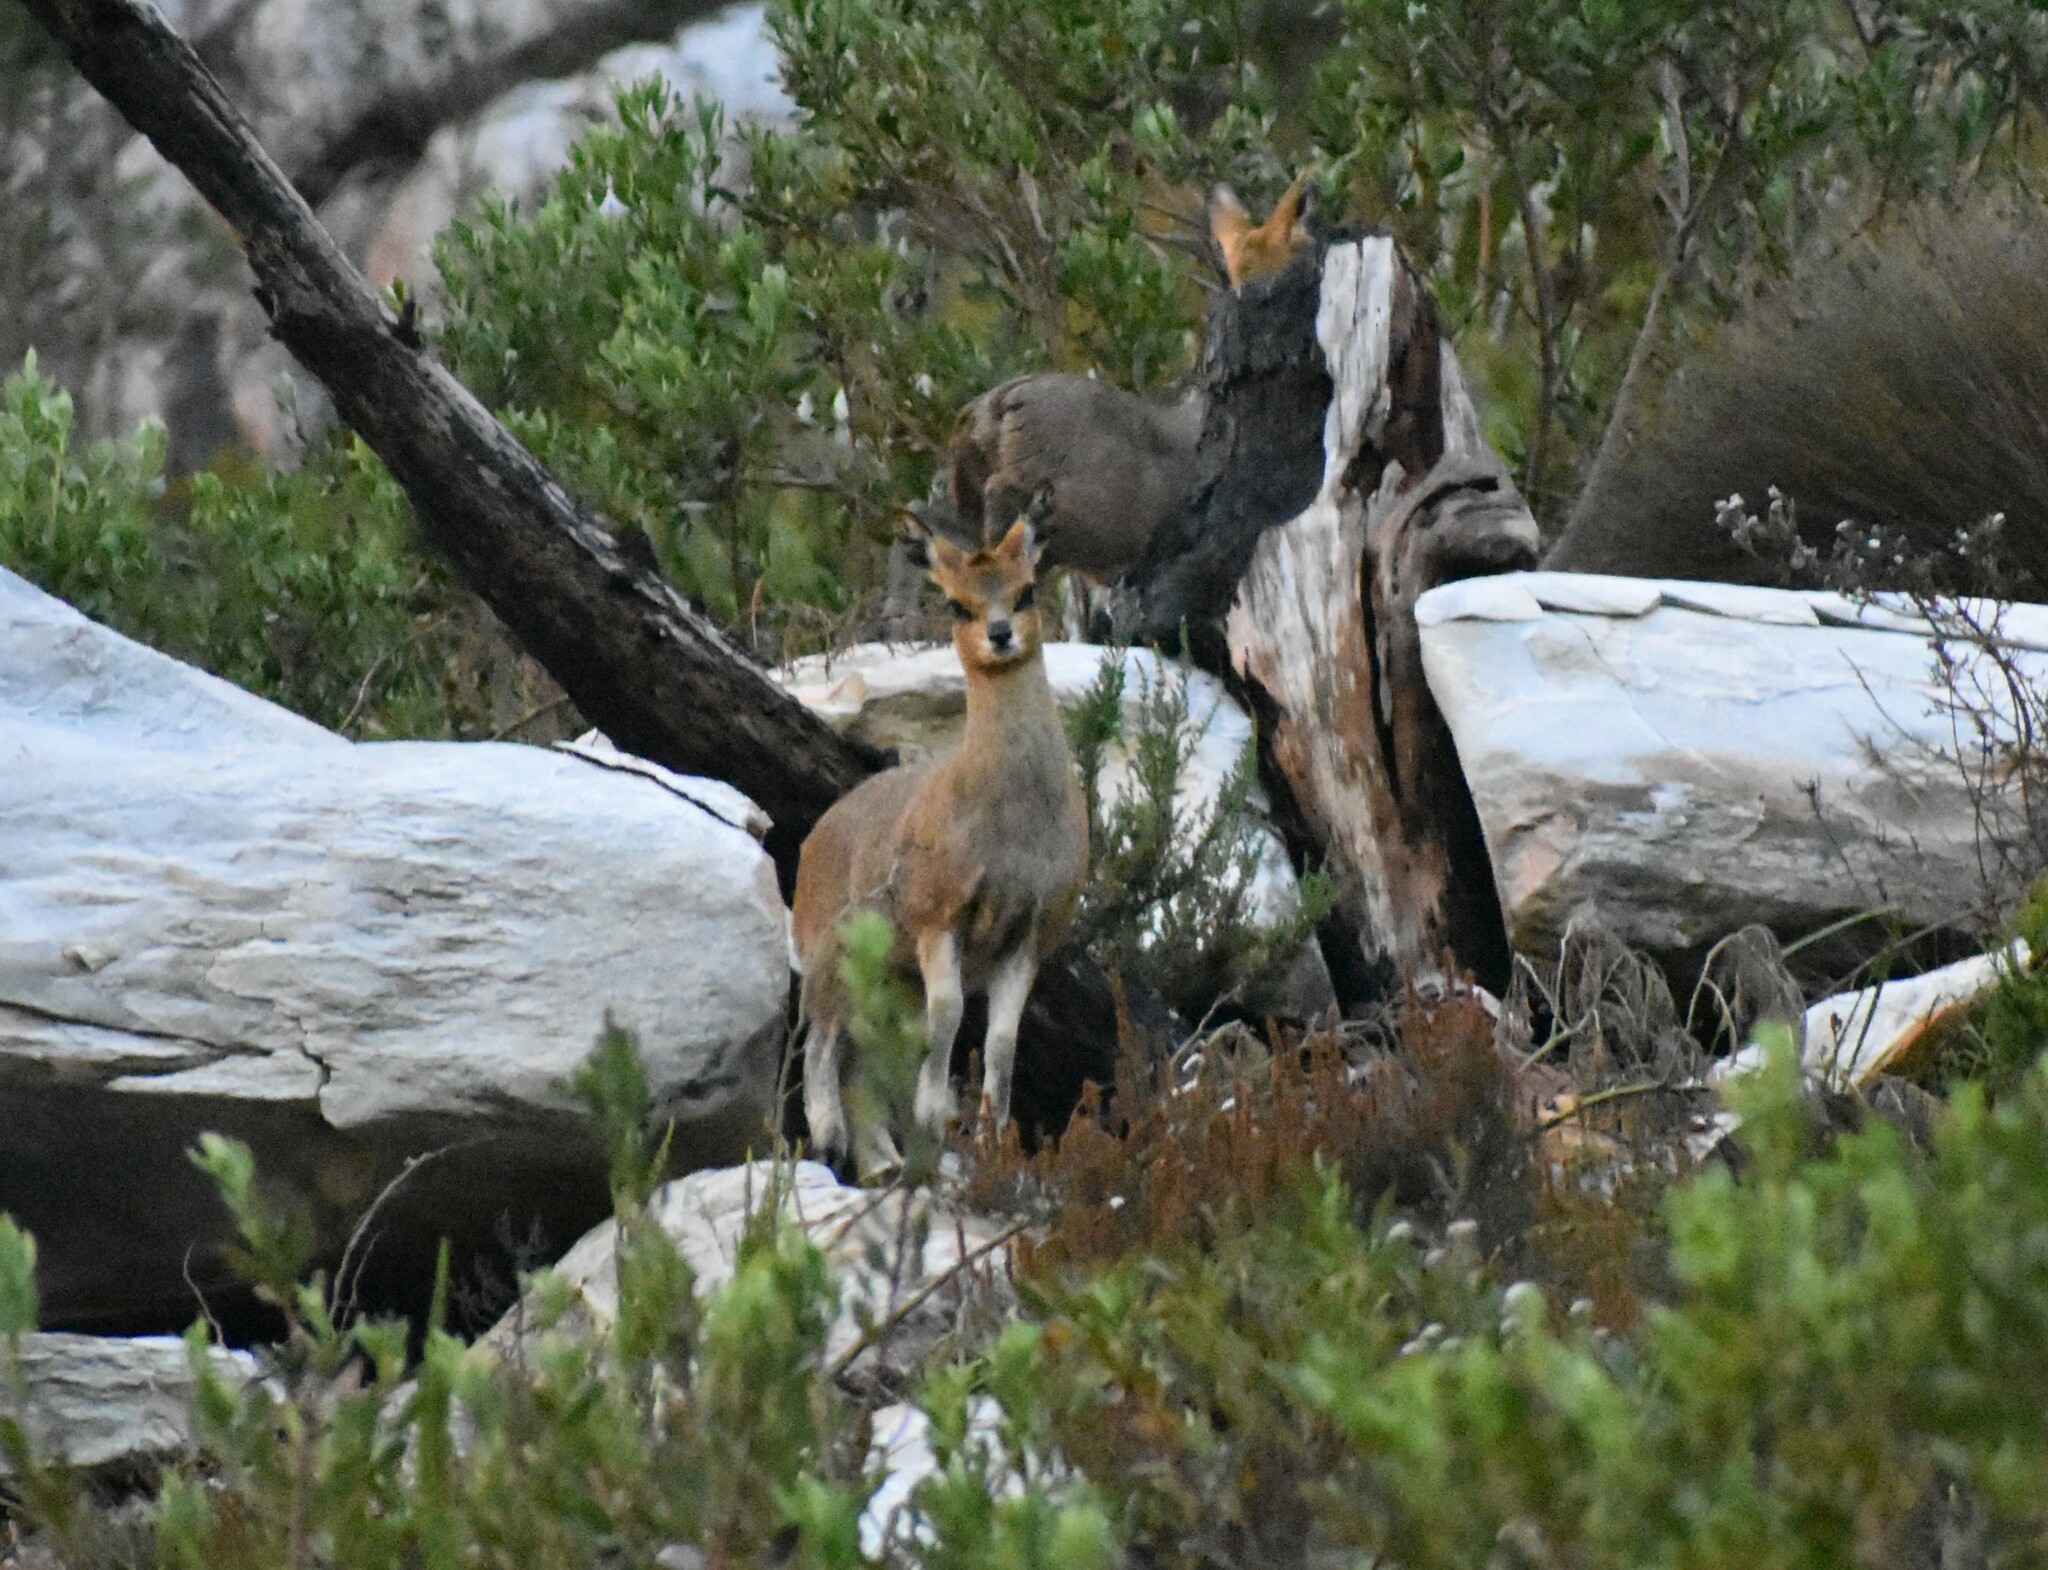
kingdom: Animalia
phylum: Chordata
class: Mammalia
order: Artiodactyla
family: Bovidae
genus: Oreotragus
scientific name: Oreotragus oreotragus
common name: Klipspringer
